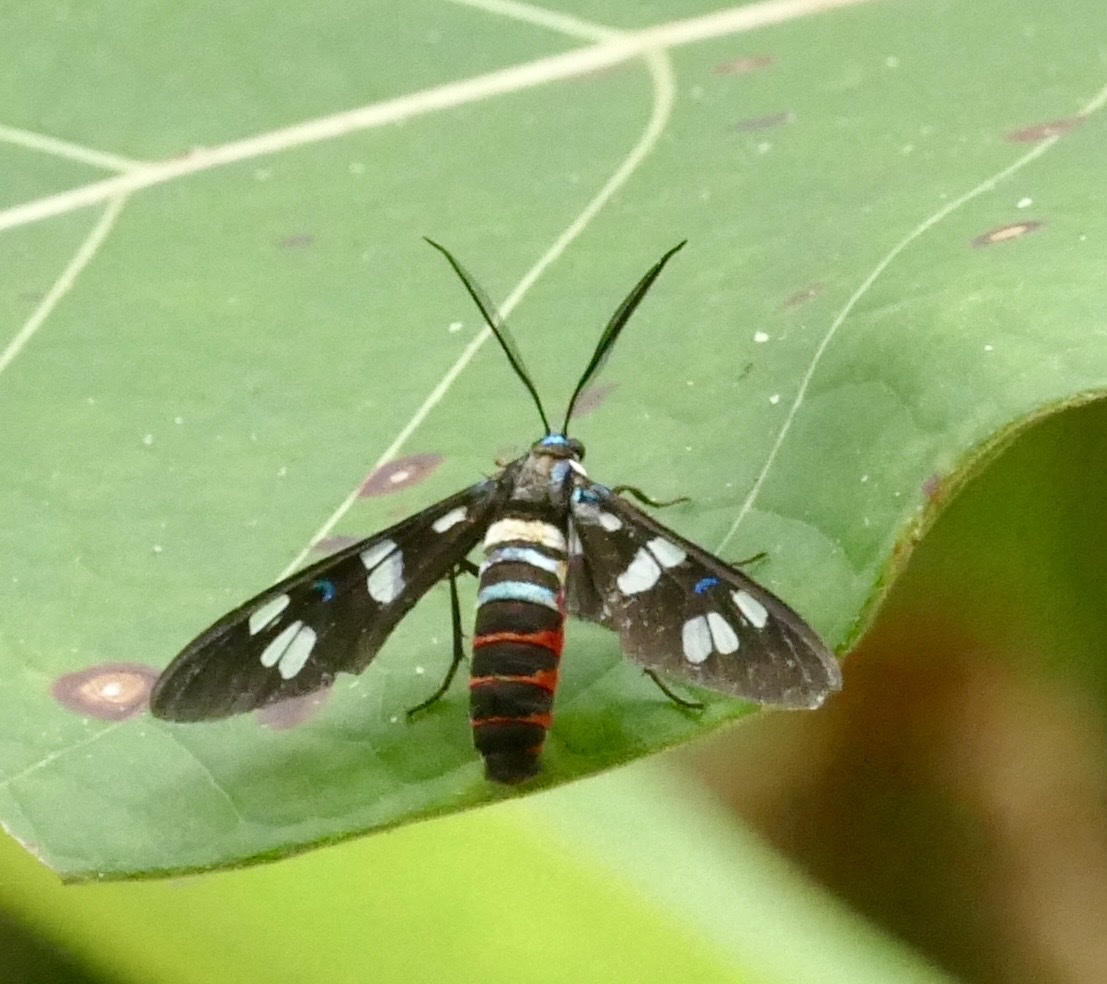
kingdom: Animalia
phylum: Arthropoda
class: Insecta
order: Lepidoptera
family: Erebidae
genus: Euchromia
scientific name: Euchromia irius
